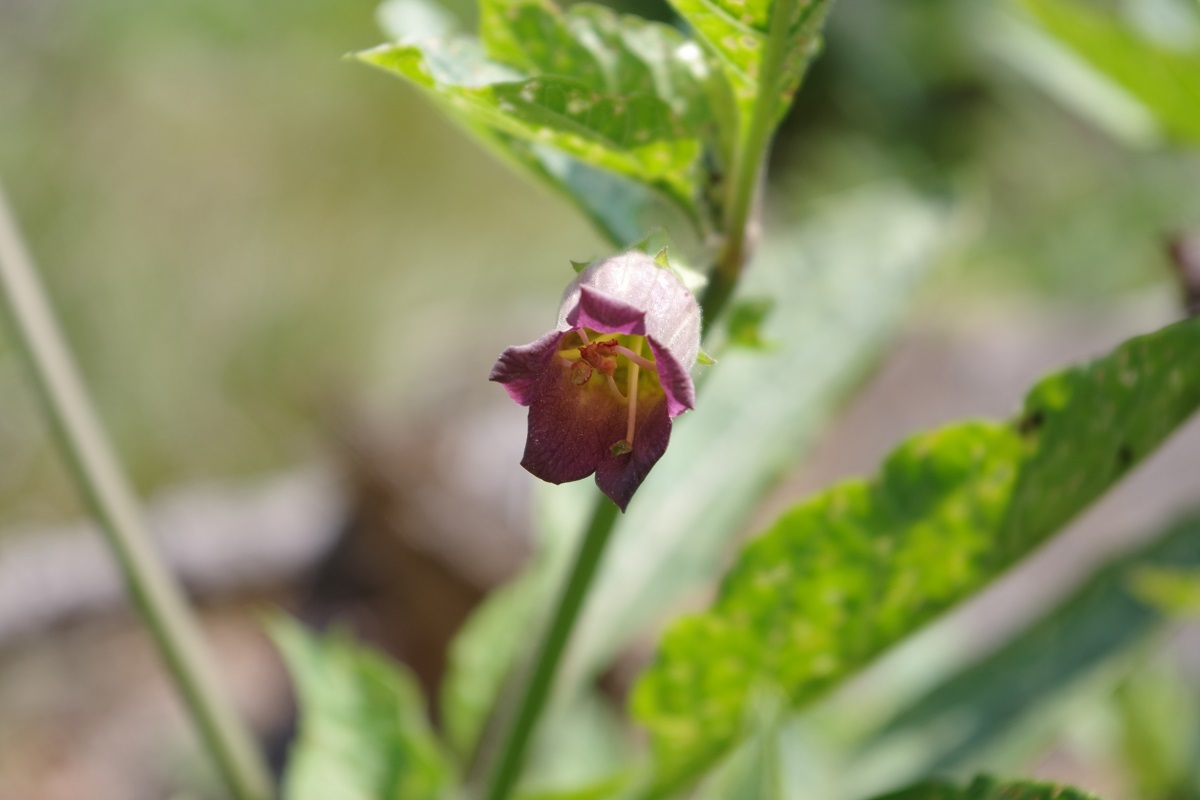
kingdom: Plantae
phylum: Tracheophyta
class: Magnoliopsida
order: Solanales
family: Solanaceae
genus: Atropa
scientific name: Atropa belladonna
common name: Deadly nightshade
